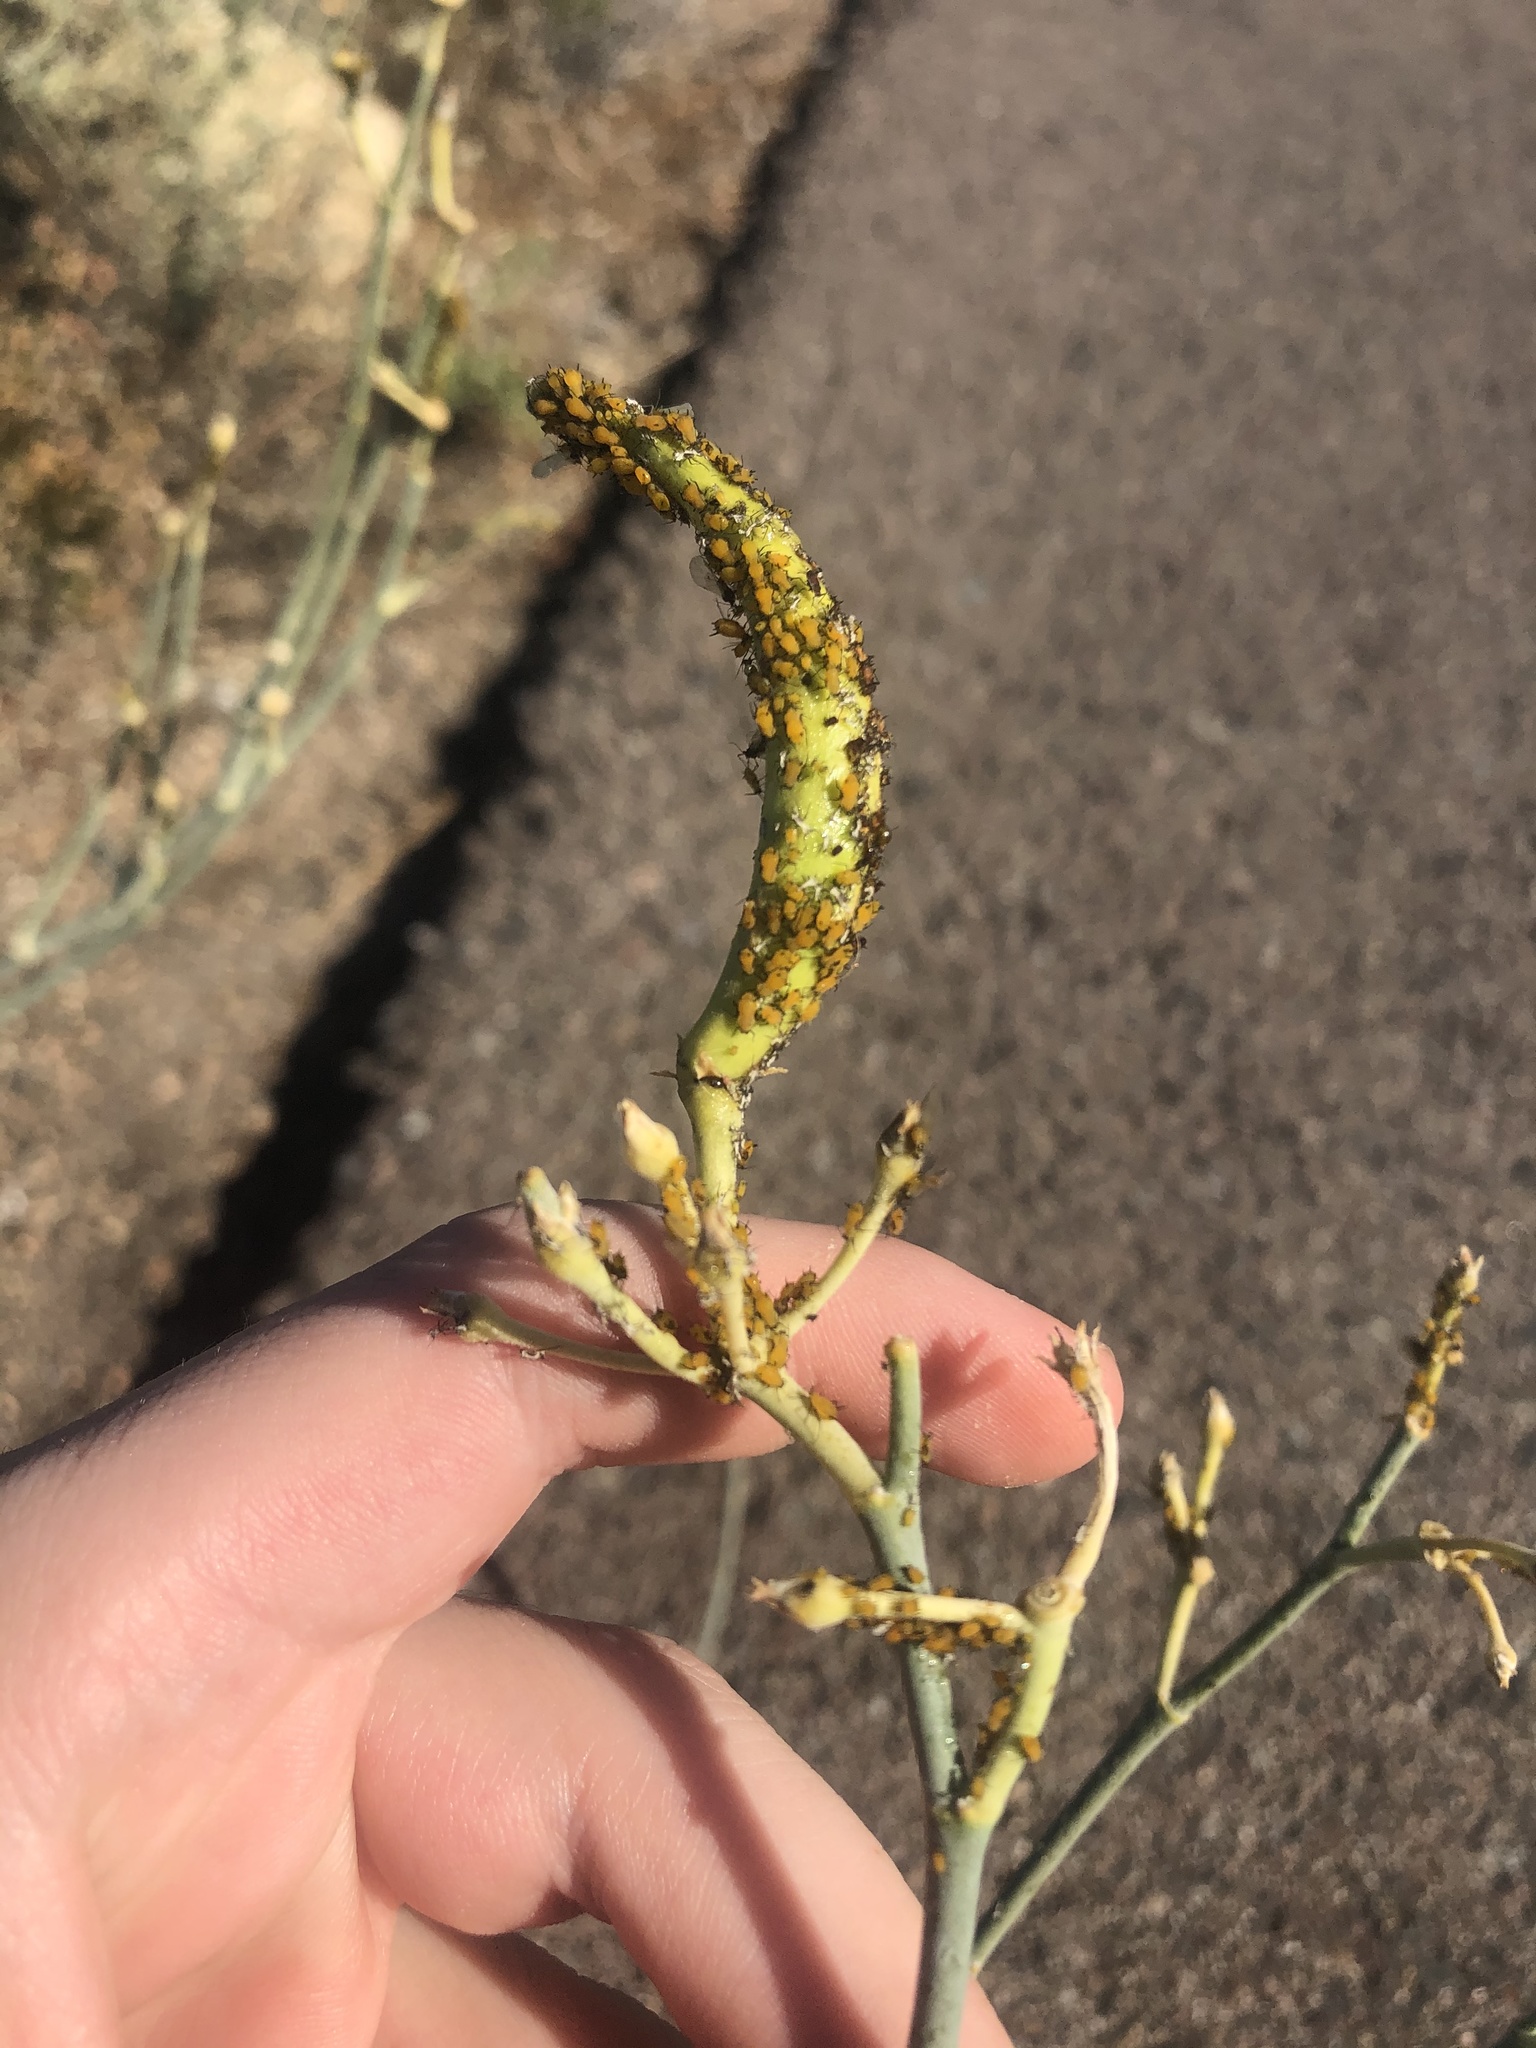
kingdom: Animalia
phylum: Arthropoda
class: Insecta
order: Hemiptera
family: Aphididae
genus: Aphis
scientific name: Aphis nerii
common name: Oleander aphid
